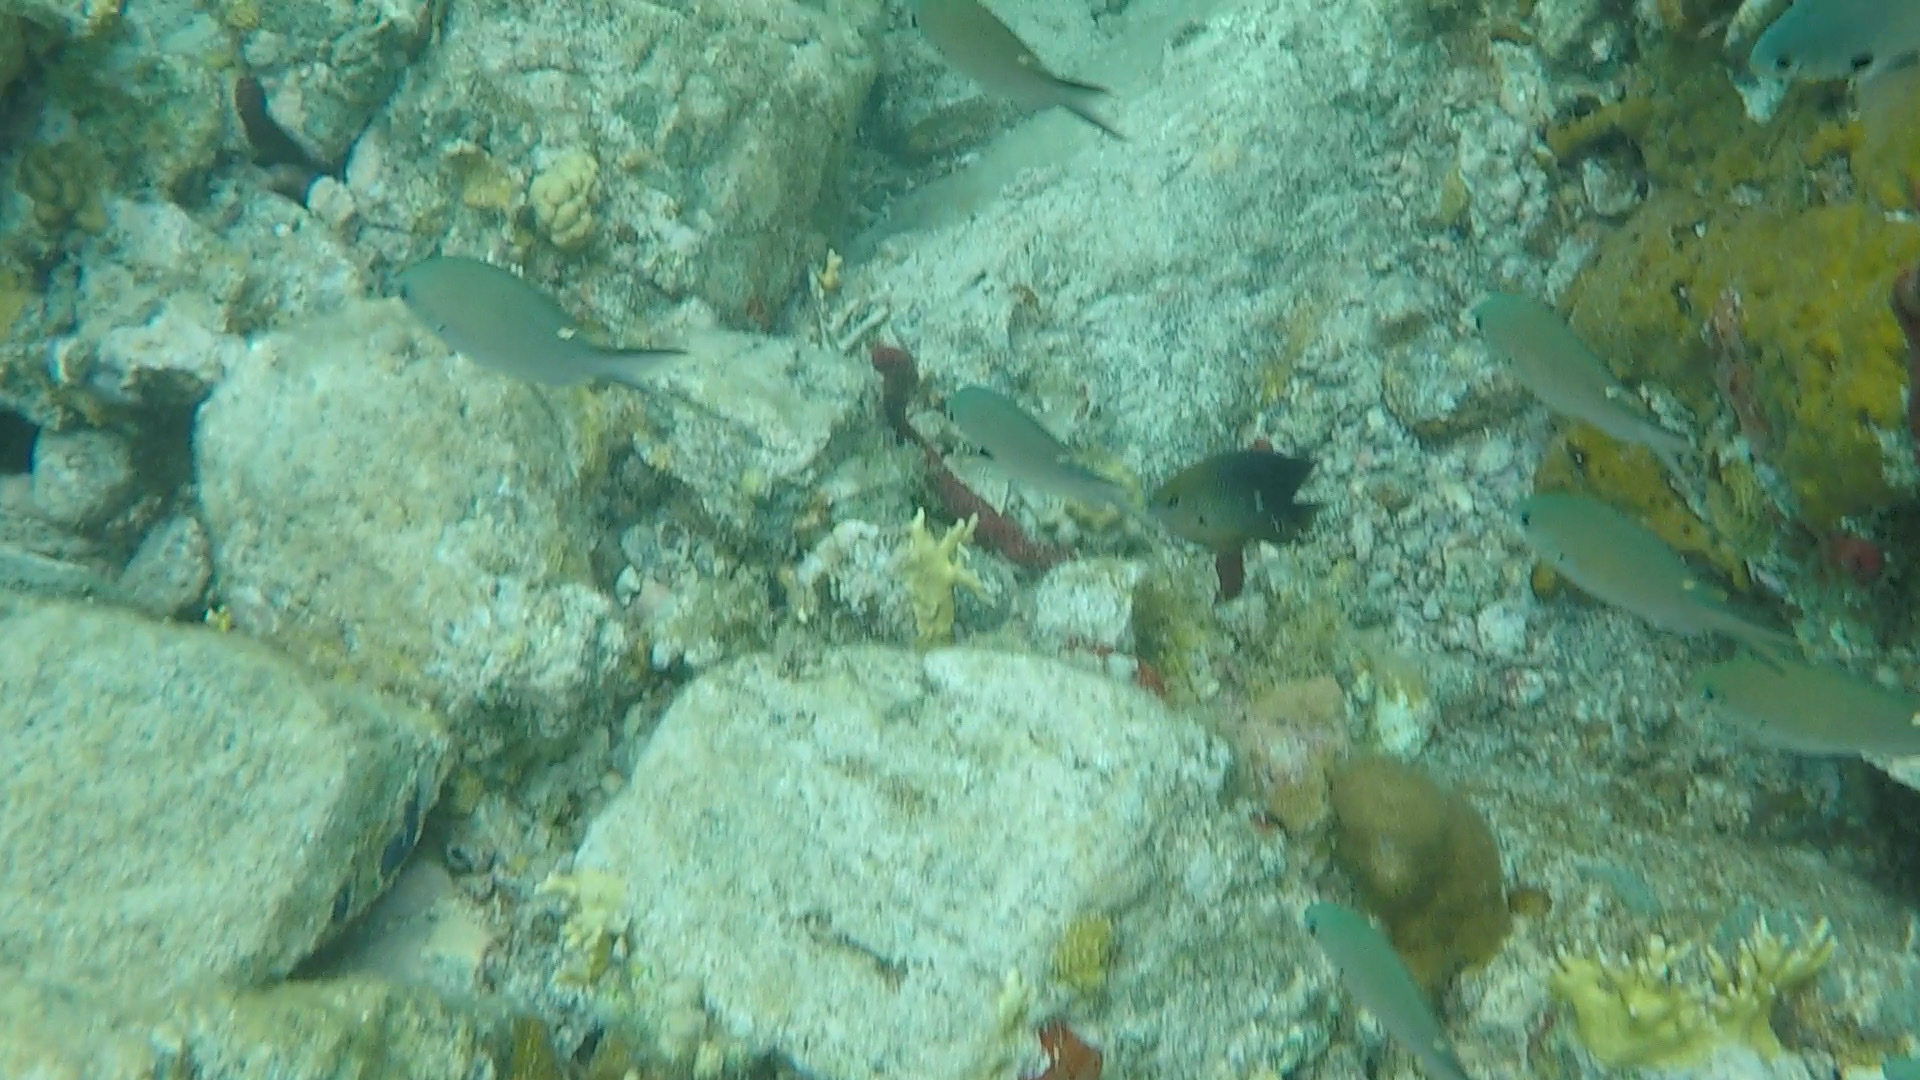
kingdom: Animalia
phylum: Chordata
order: Perciformes
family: Pomacentridae
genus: Chromis
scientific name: Chromis multilineata
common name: Brown chromis
